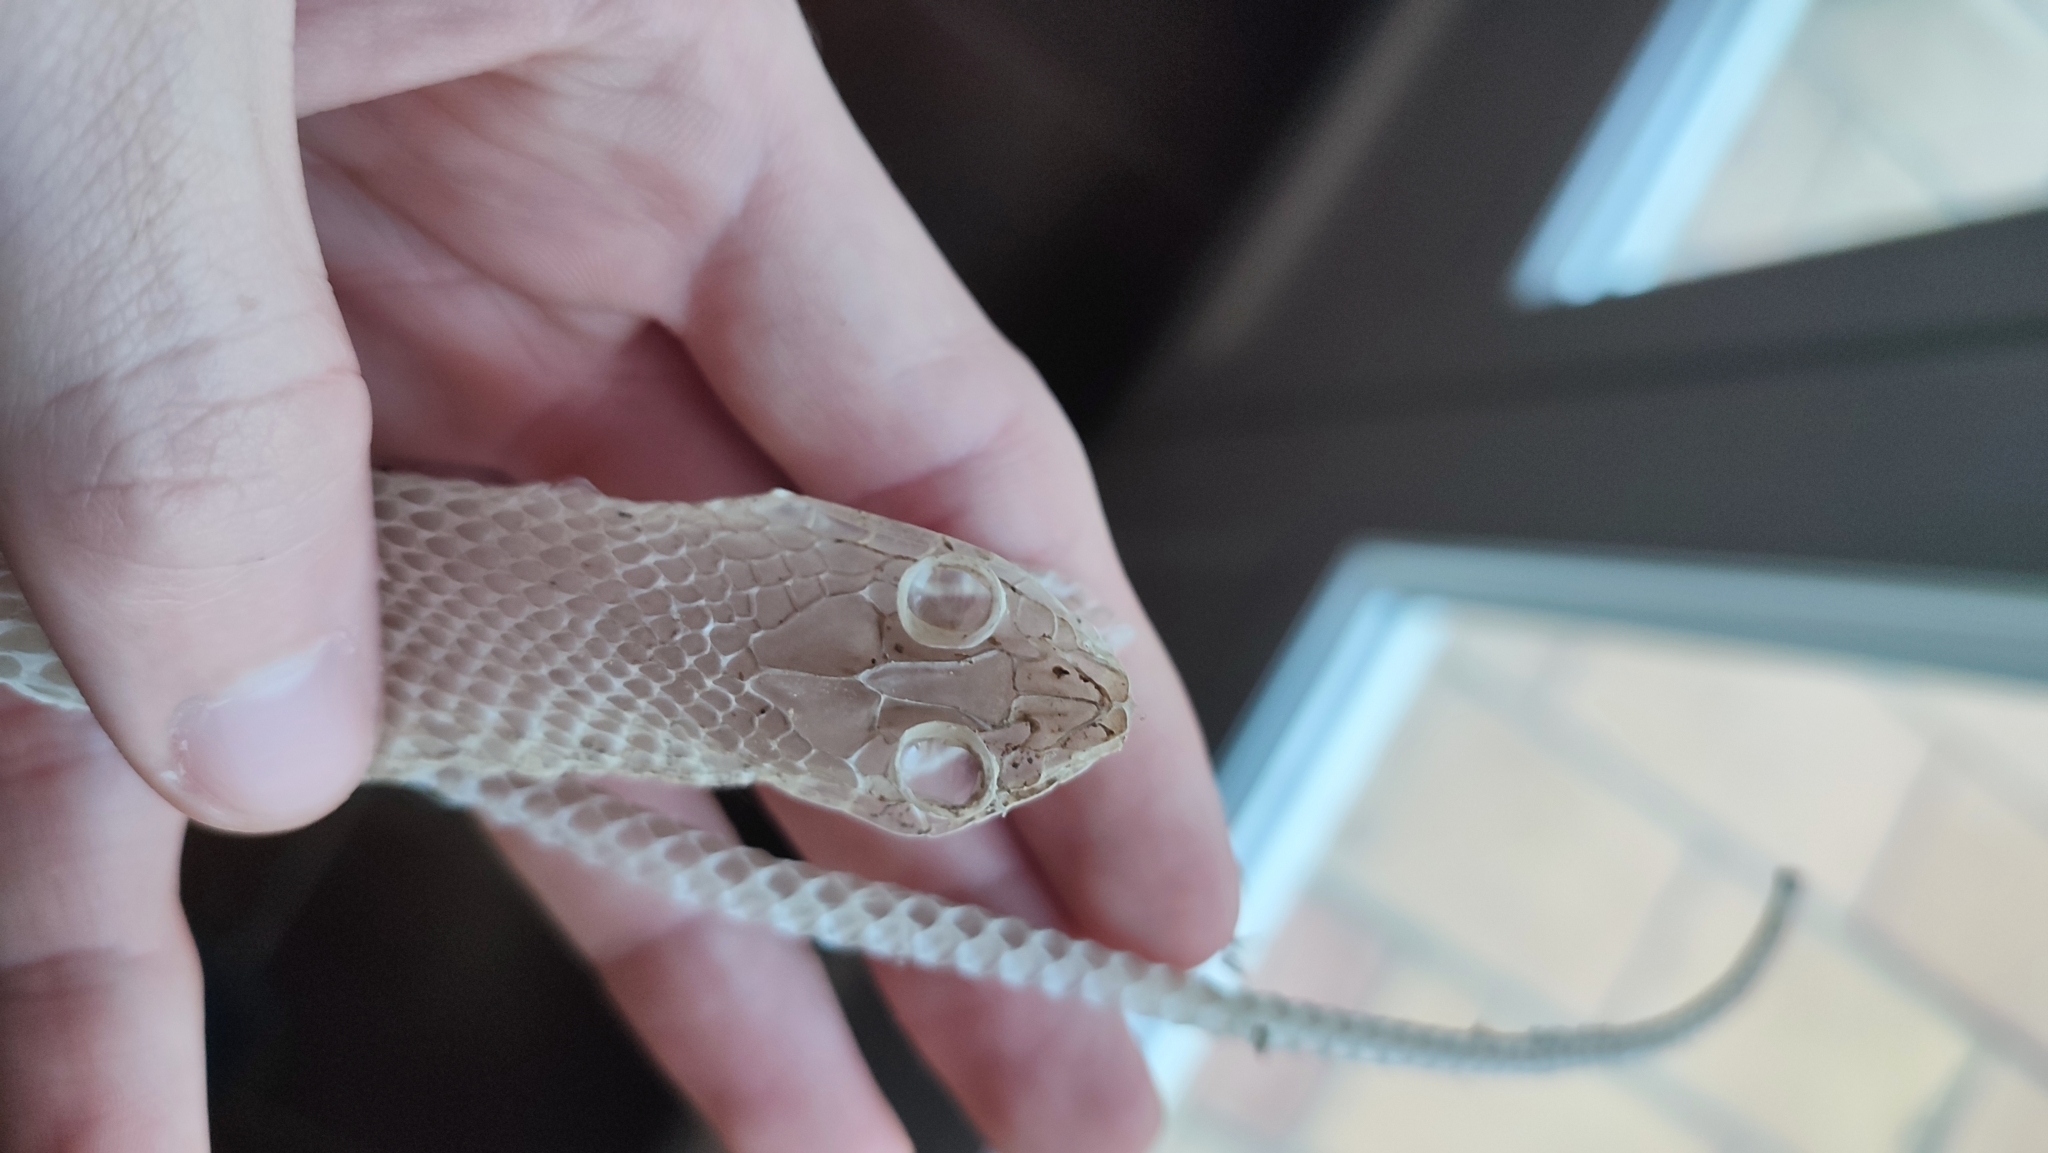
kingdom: Animalia
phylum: Chordata
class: Squamata
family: Psammophiidae
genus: Malpolon
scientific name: Malpolon monspessulanus
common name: Montpellier snake
